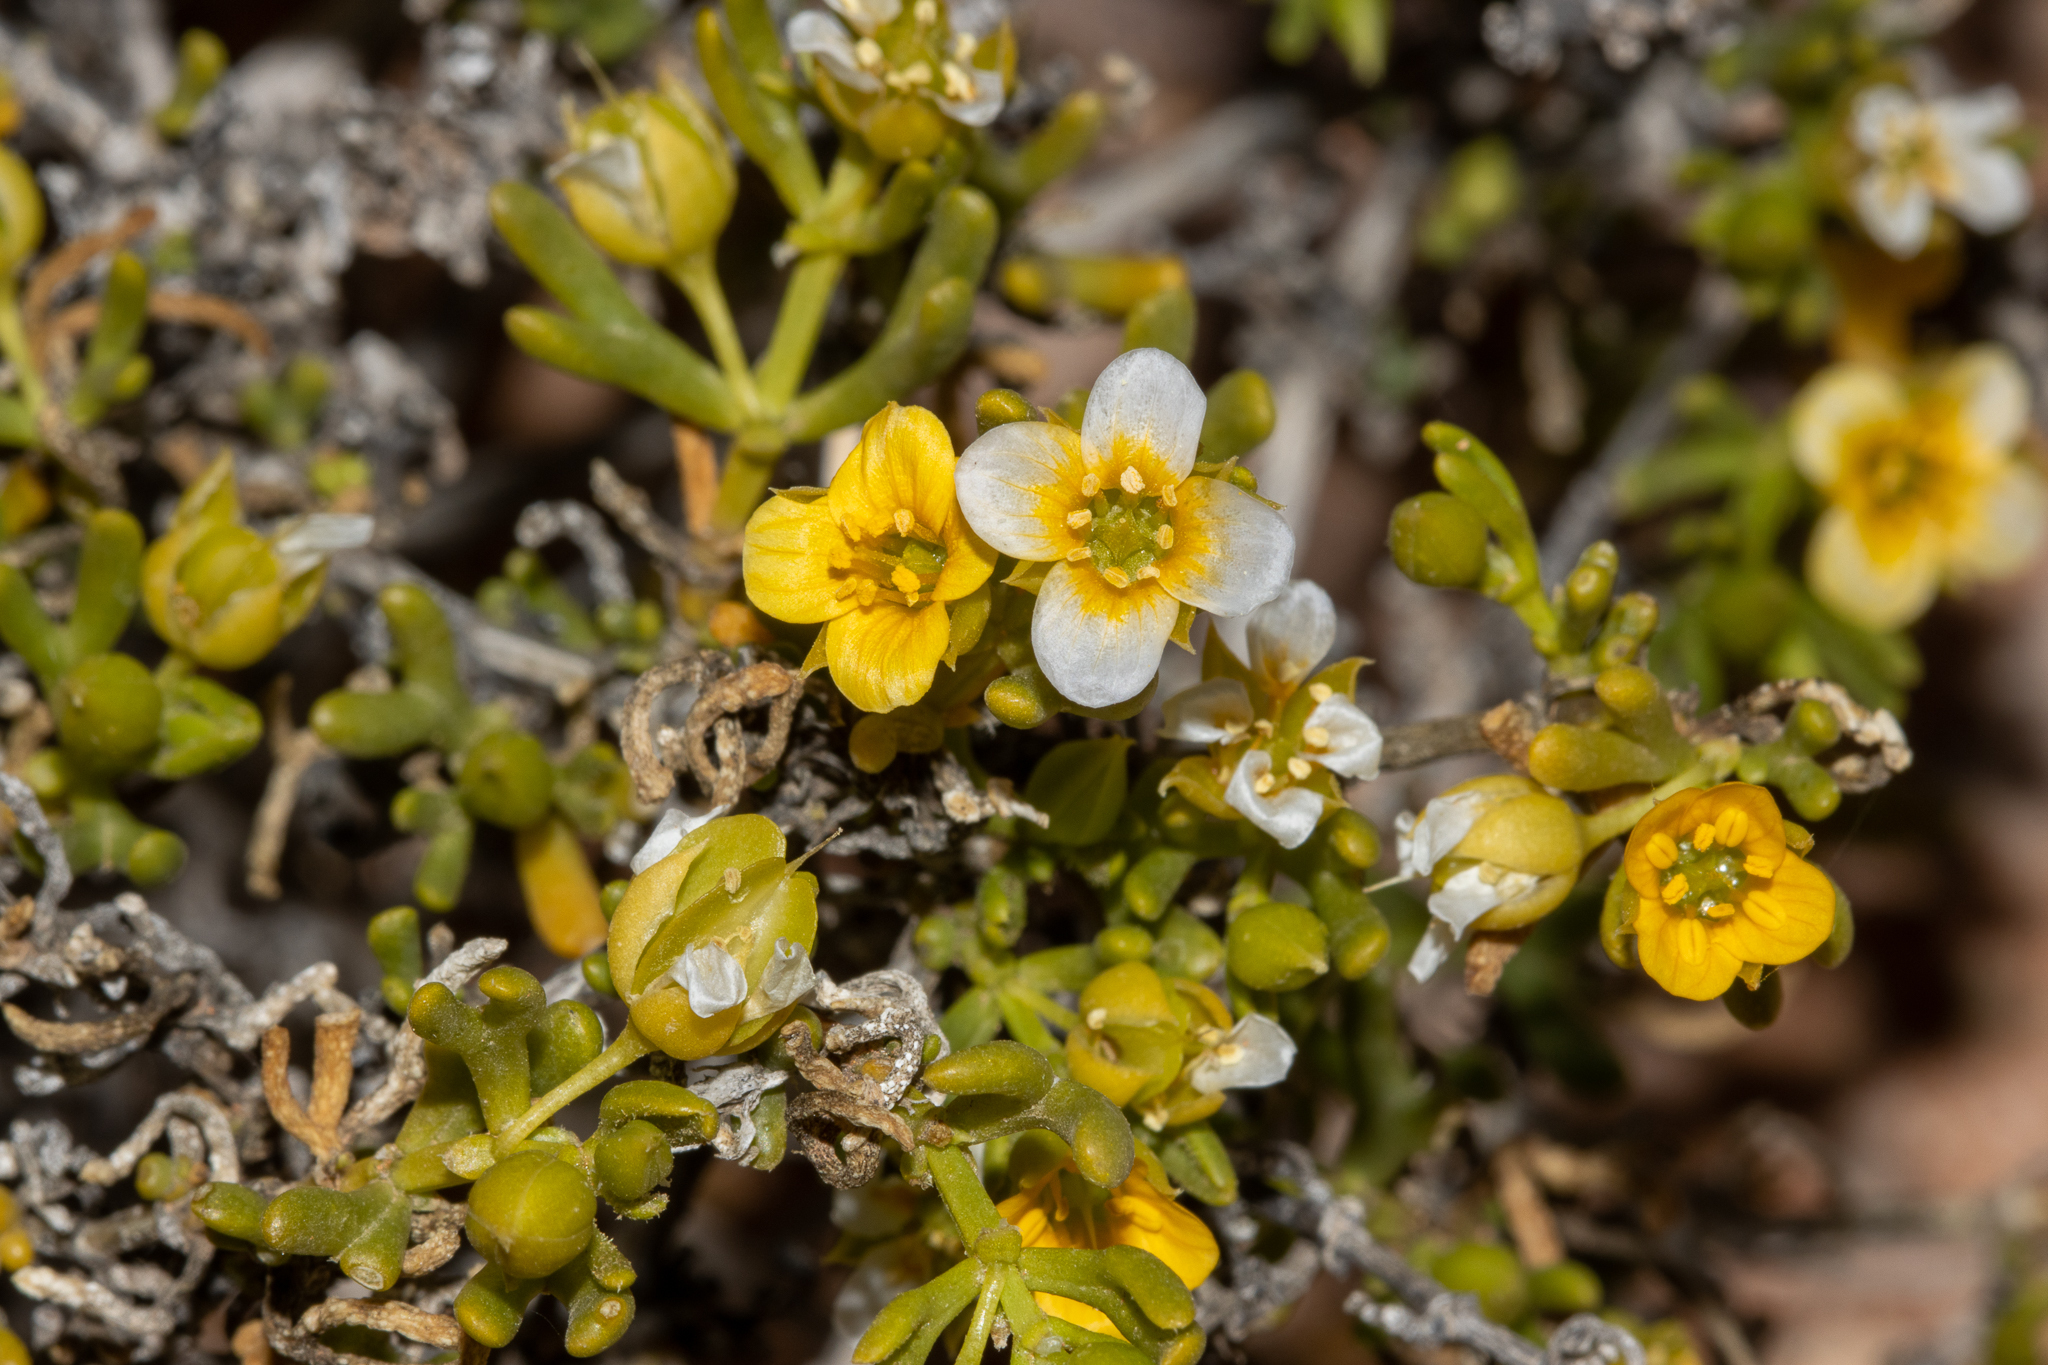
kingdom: Plantae
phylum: Tracheophyta
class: Magnoliopsida
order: Zygophyllales
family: Zygophyllaceae
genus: Roepera
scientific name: Roepera aurantiaca
